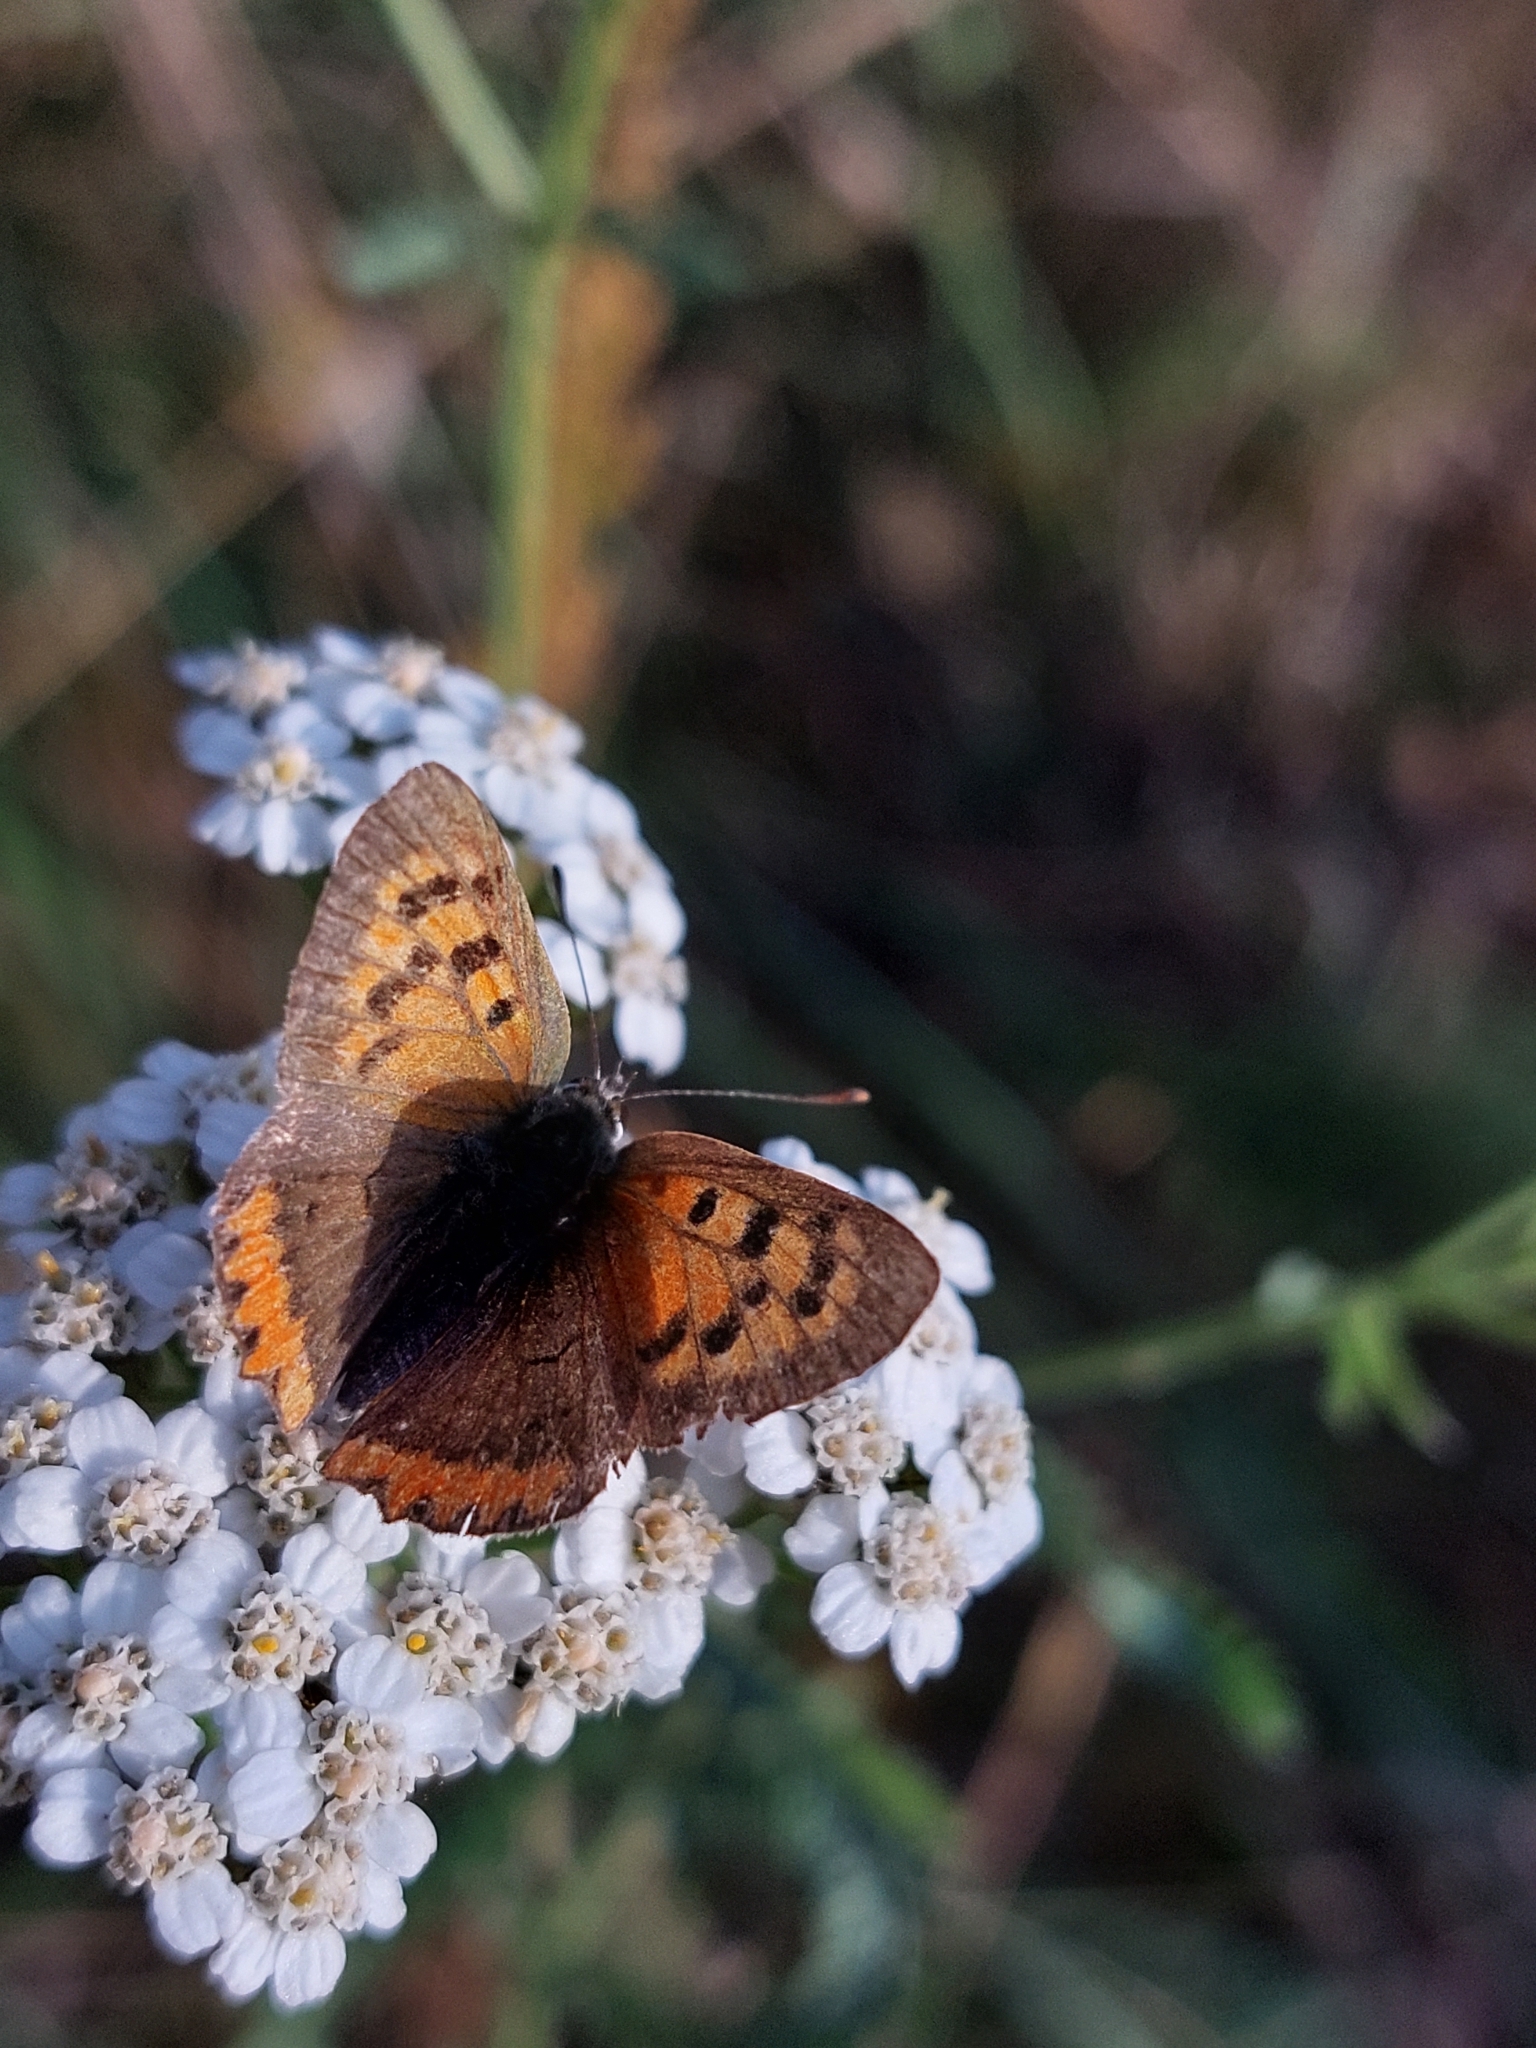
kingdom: Animalia
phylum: Arthropoda
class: Insecta
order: Lepidoptera
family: Lycaenidae
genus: Lycaena
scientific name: Lycaena phlaeas
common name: Small copper
